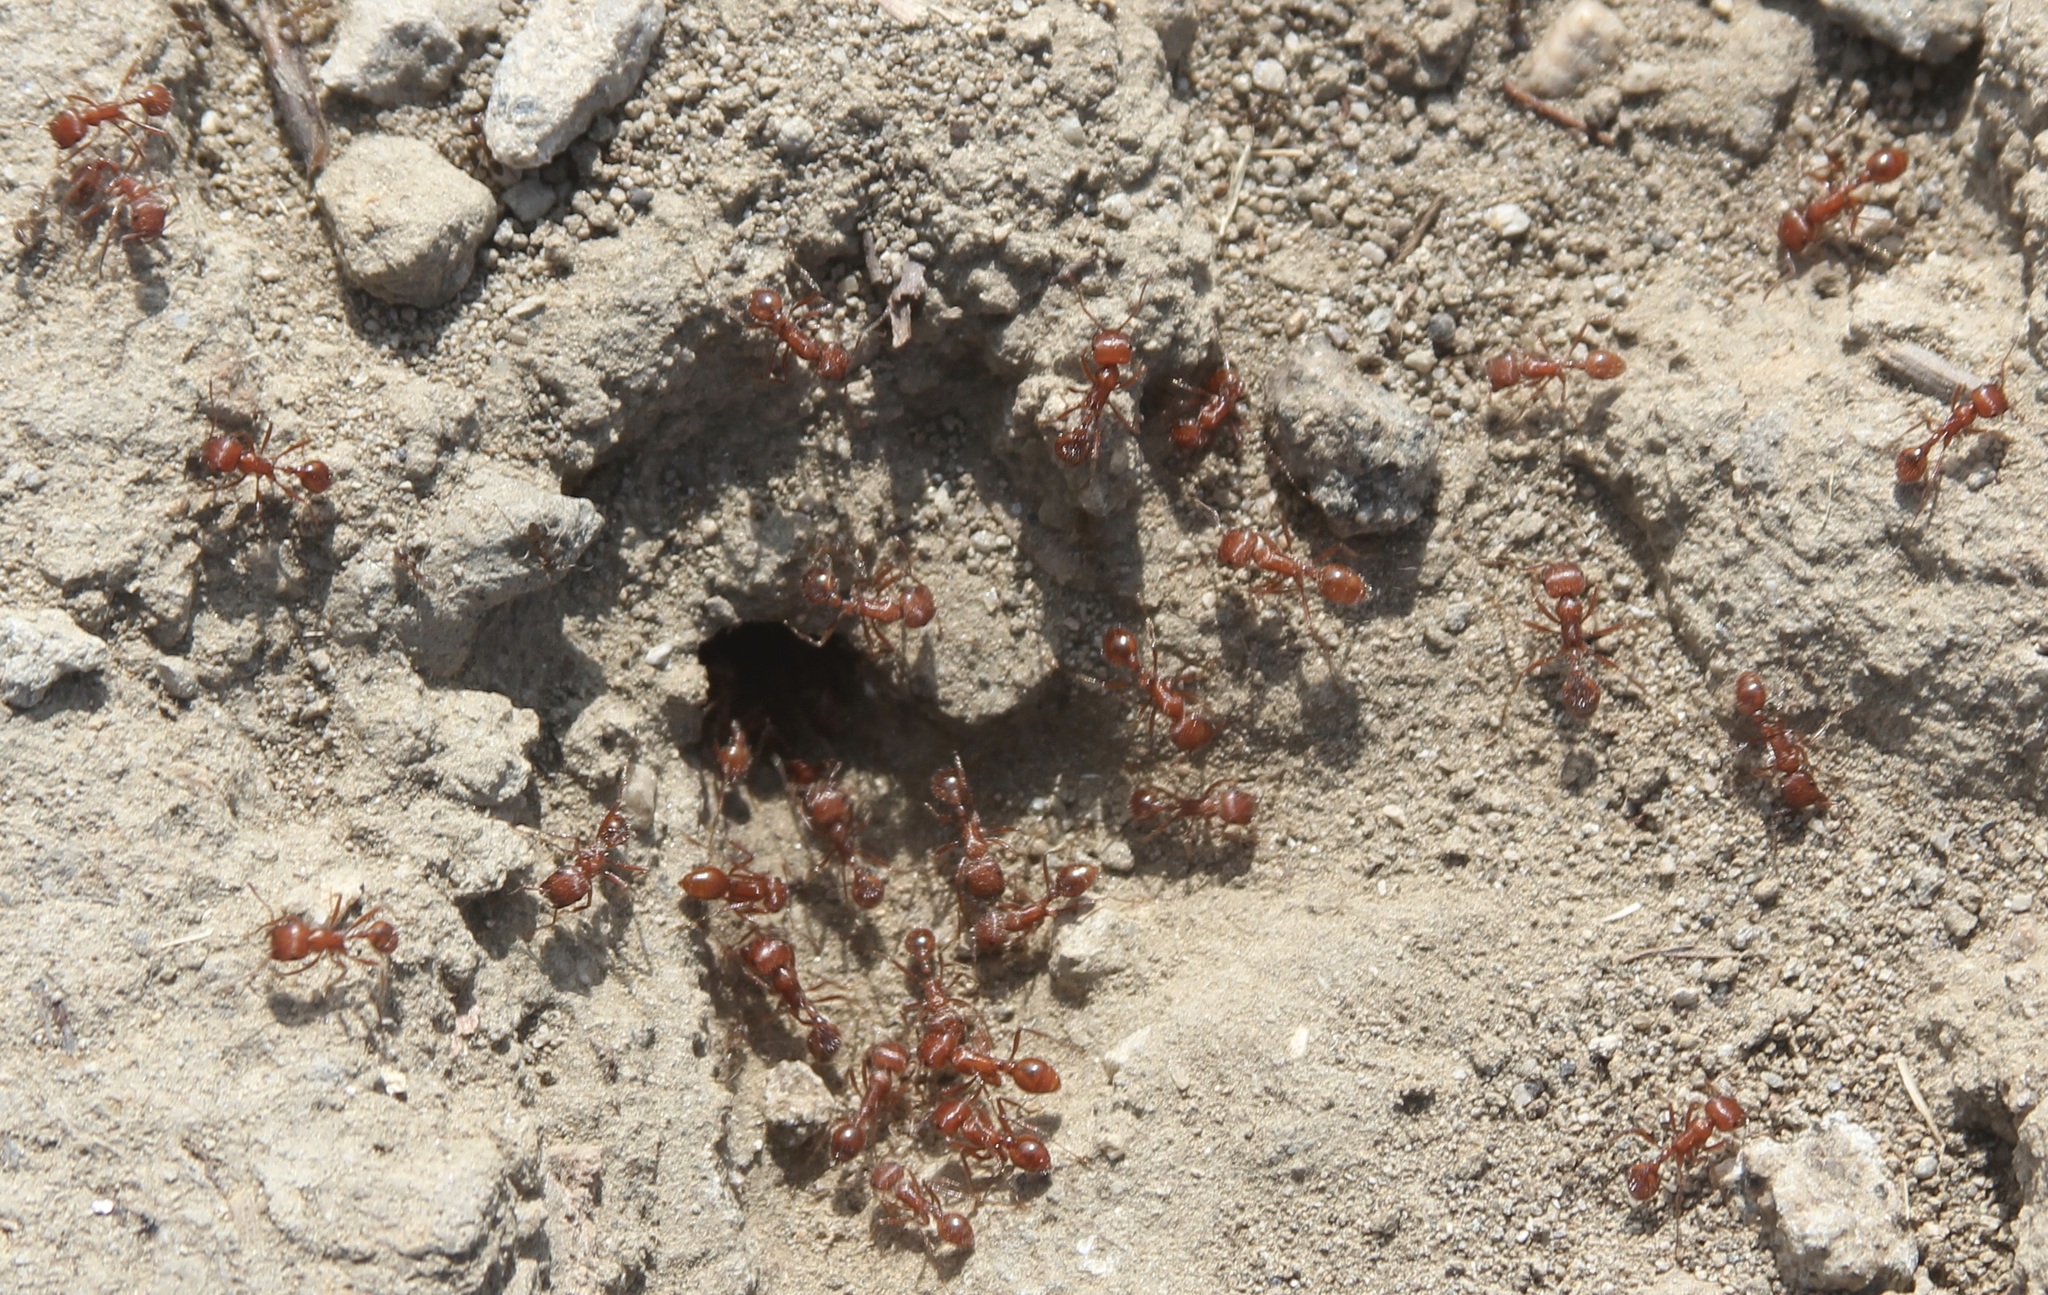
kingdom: Animalia
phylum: Arthropoda
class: Insecta
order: Hymenoptera
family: Formicidae
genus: Pogonomyrmex
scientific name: Pogonomyrmex californicus
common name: California harvester ant
